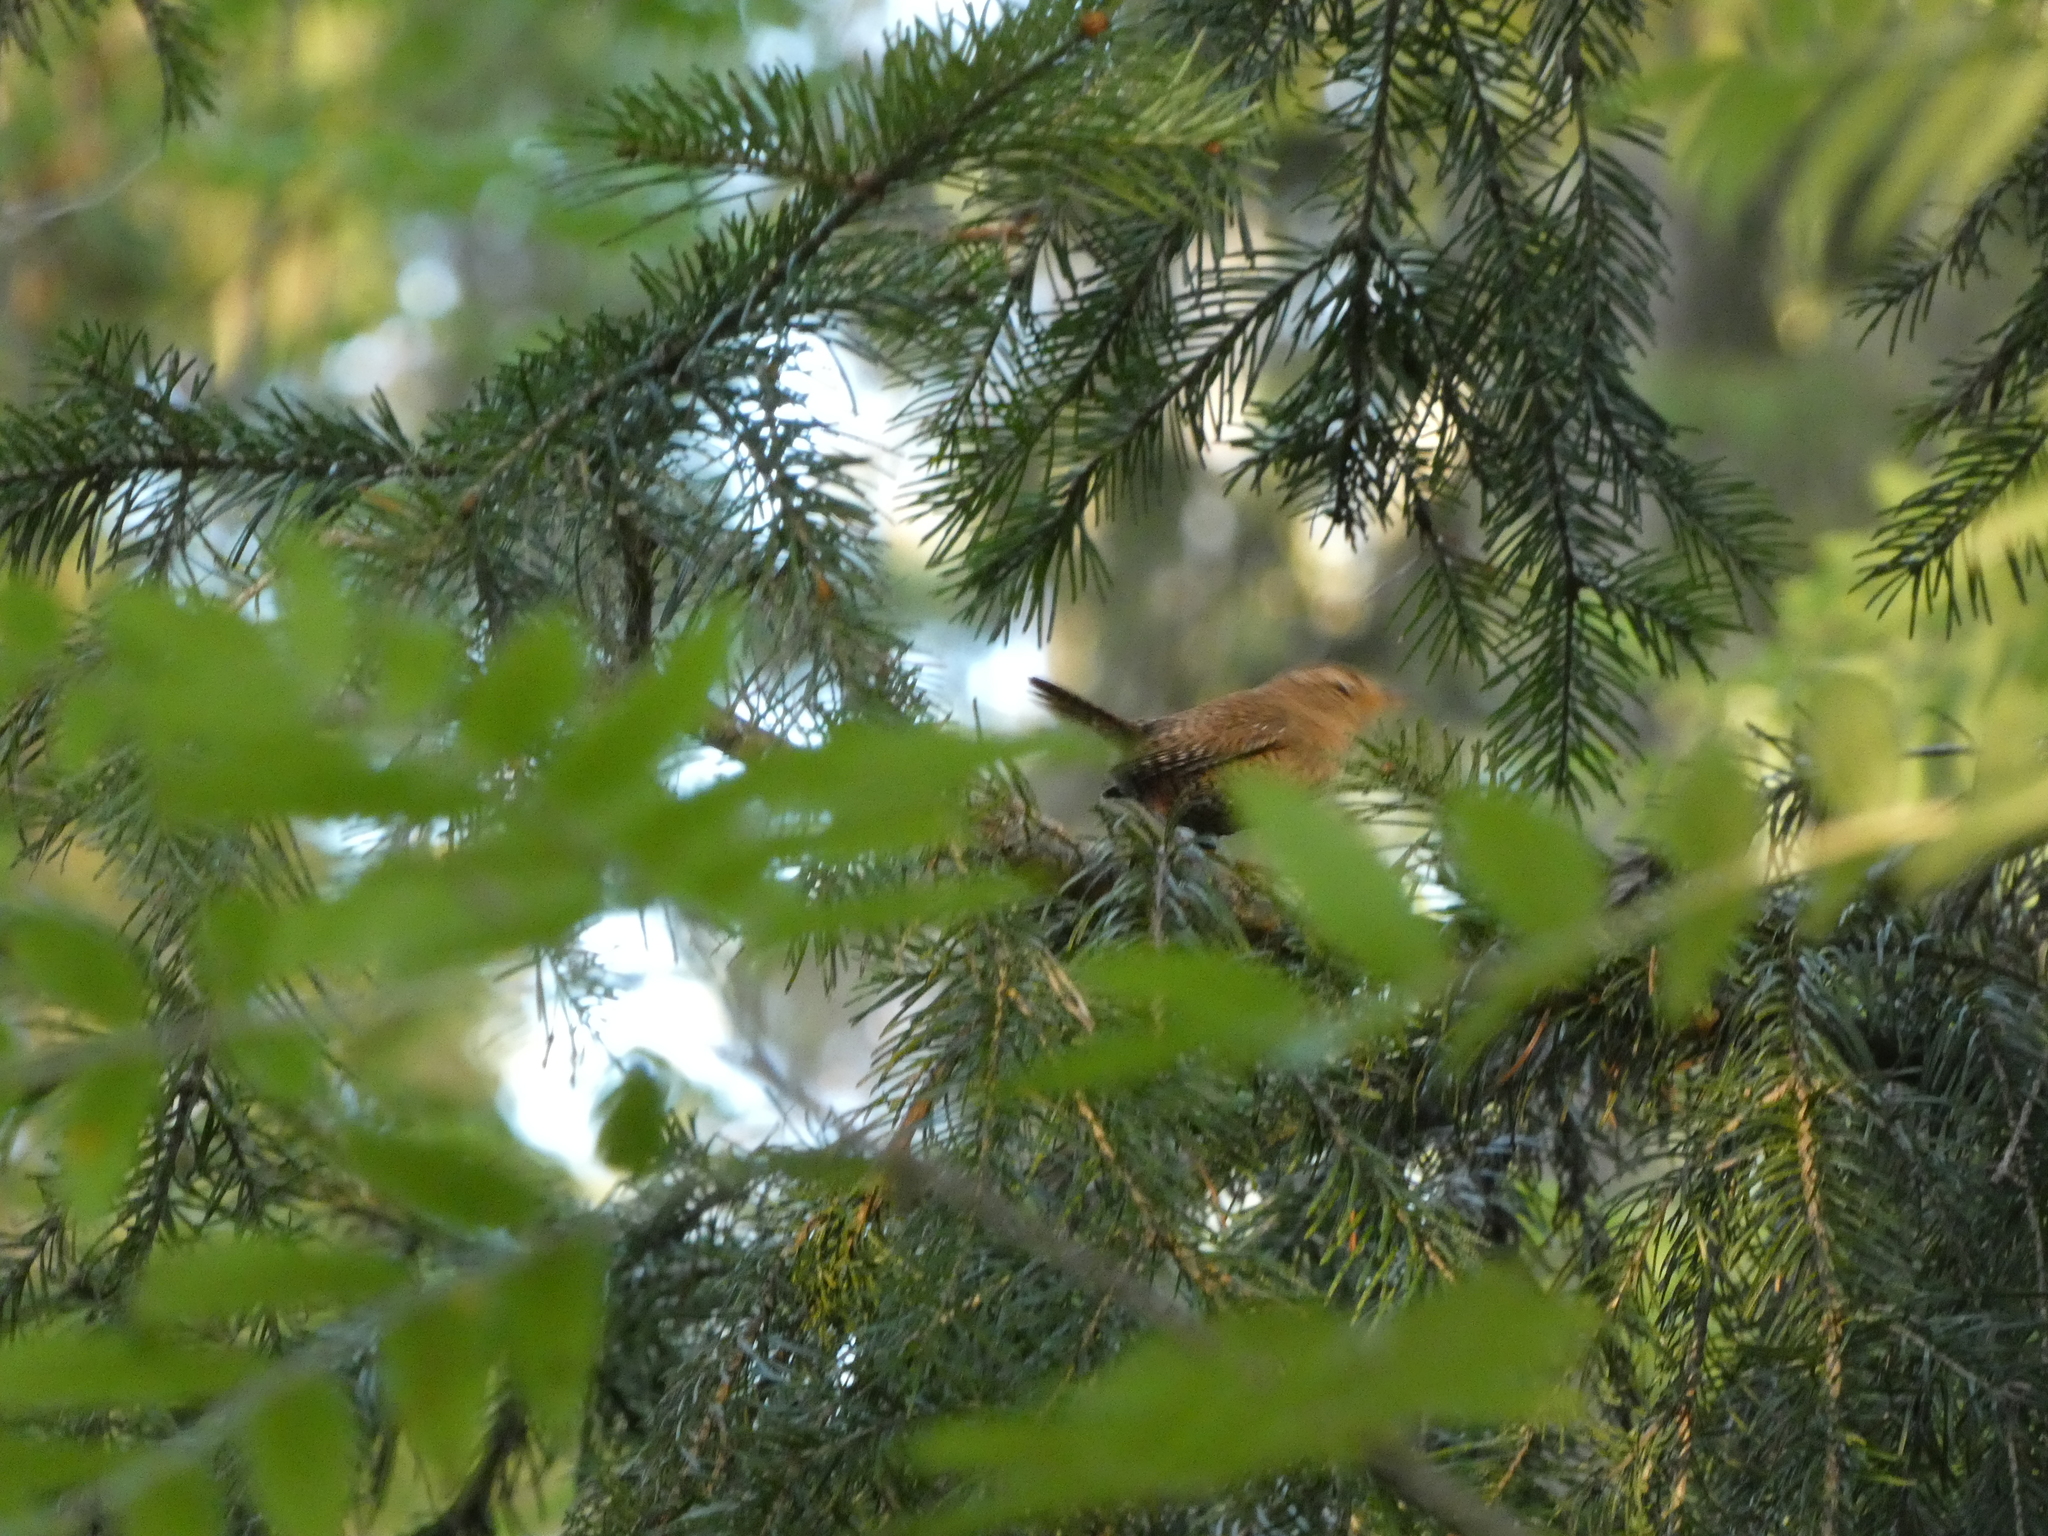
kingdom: Animalia
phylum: Chordata
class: Aves
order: Passeriformes
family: Troglodytidae
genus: Troglodytes
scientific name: Troglodytes troglodytes
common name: Eurasian wren
